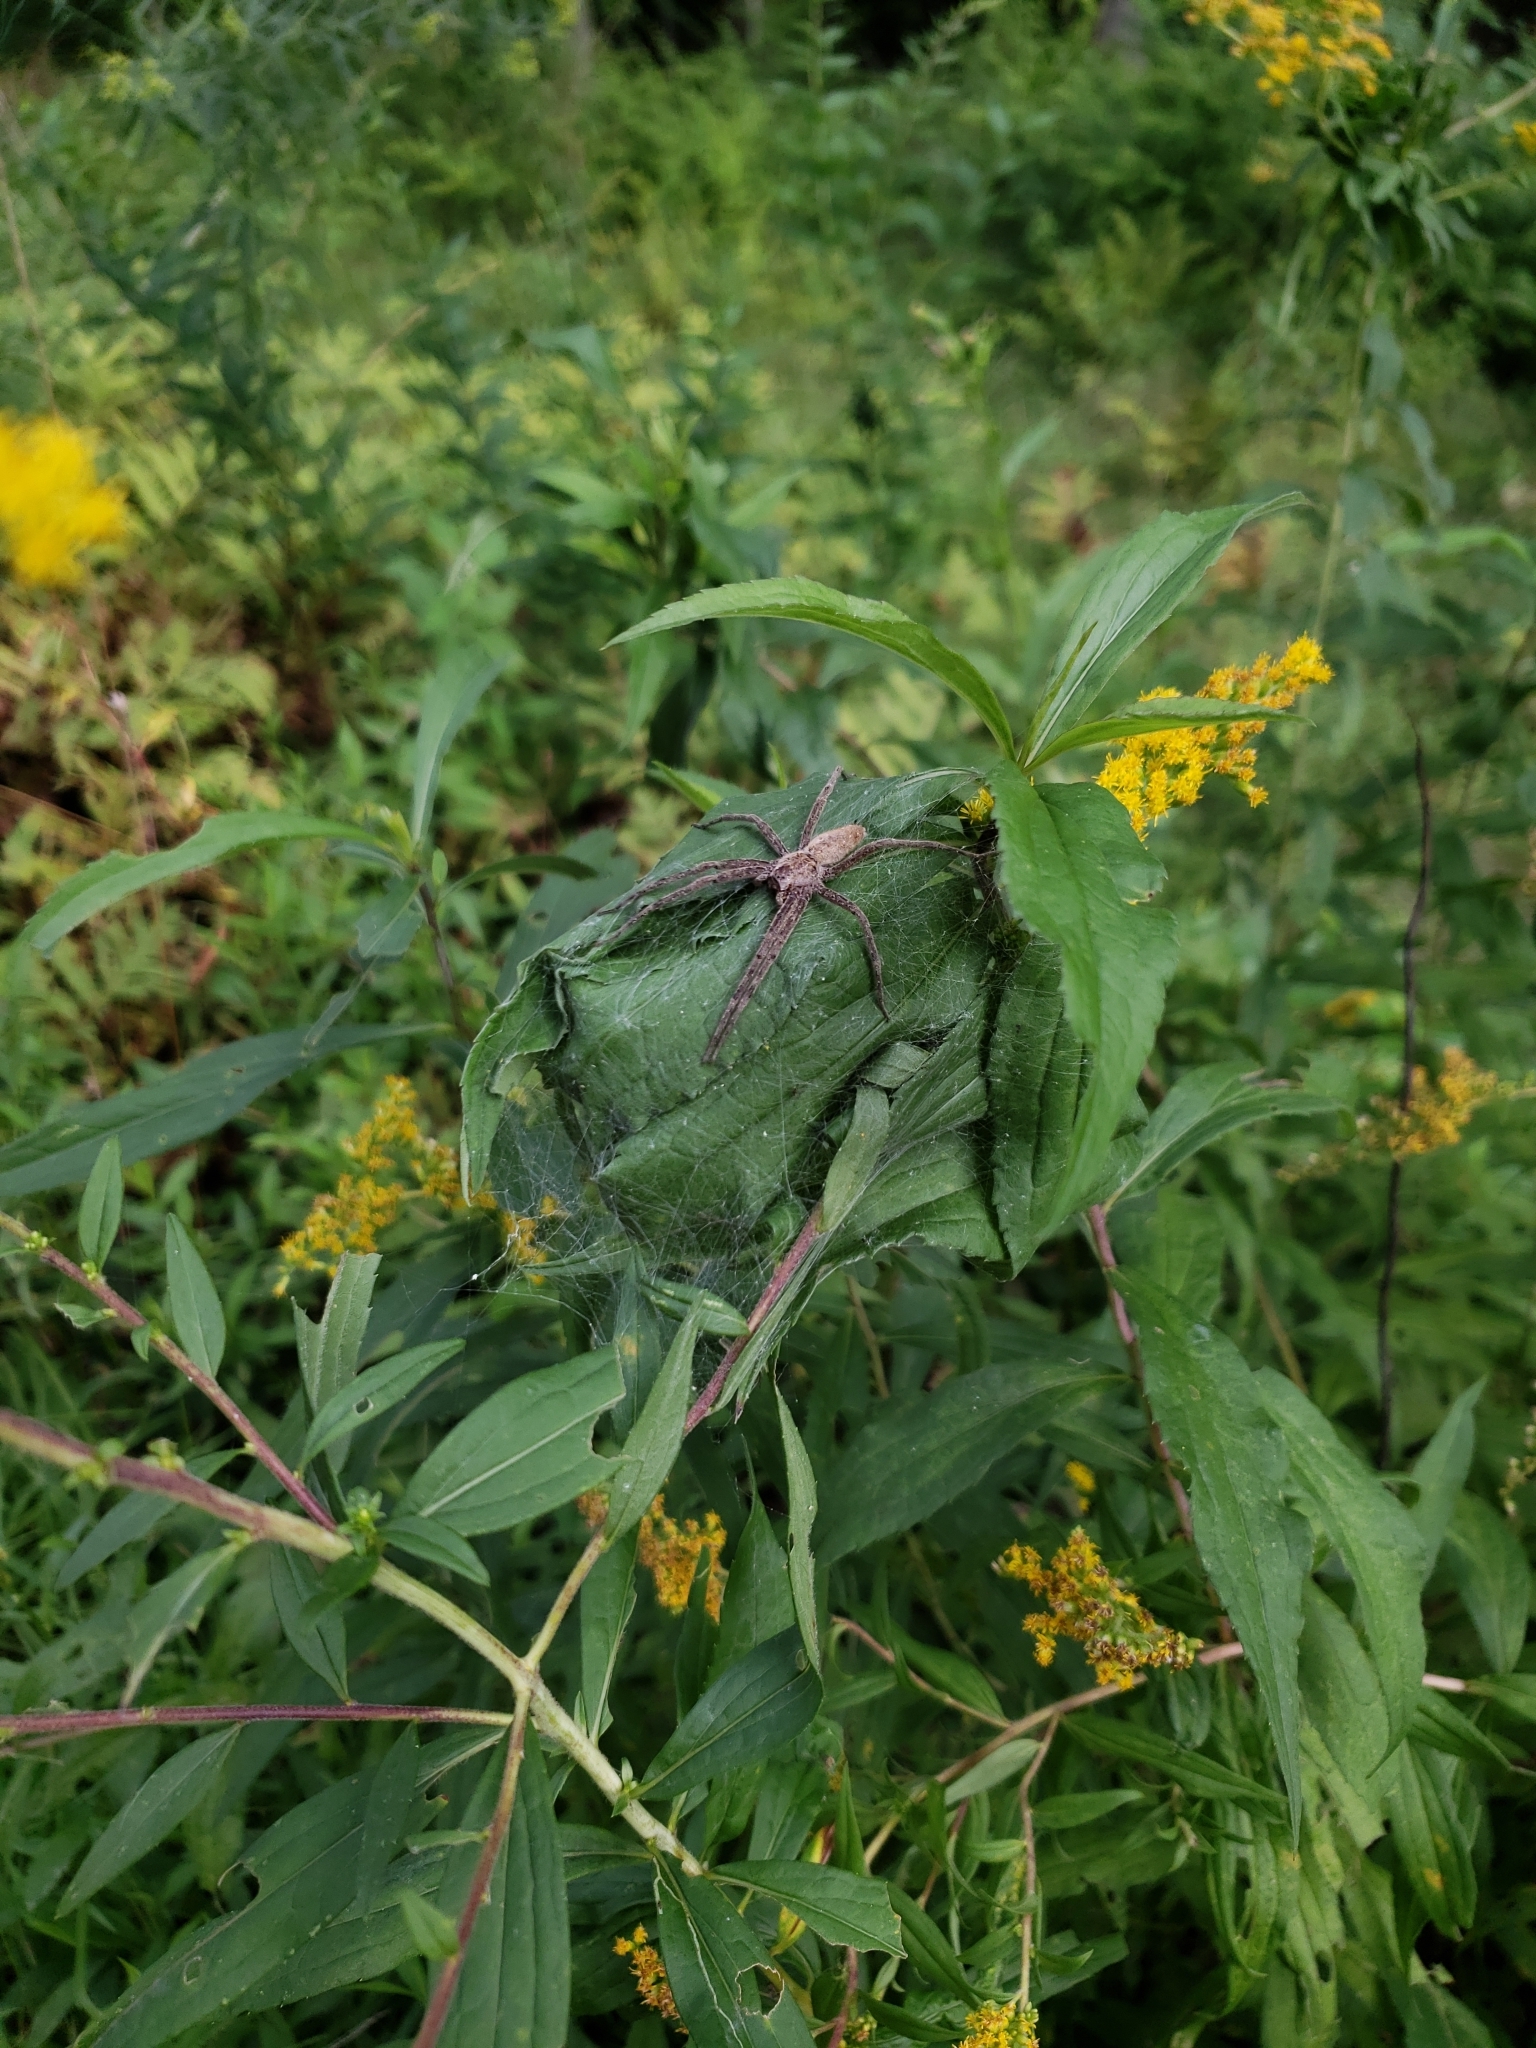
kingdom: Animalia
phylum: Arthropoda
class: Arachnida
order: Araneae
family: Pisauridae
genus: Pisaurina
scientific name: Pisaurina mira
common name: American nursery web spider
